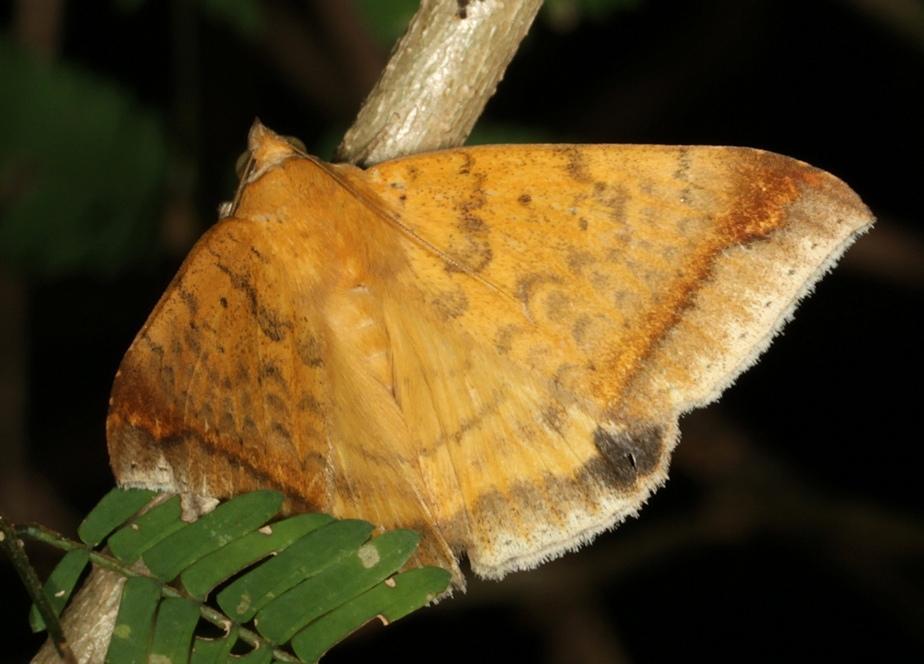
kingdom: Animalia
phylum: Arthropoda
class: Insecta
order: Lepidoptera
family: Erebidae
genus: Ophisma
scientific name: Ophisma albitermia
